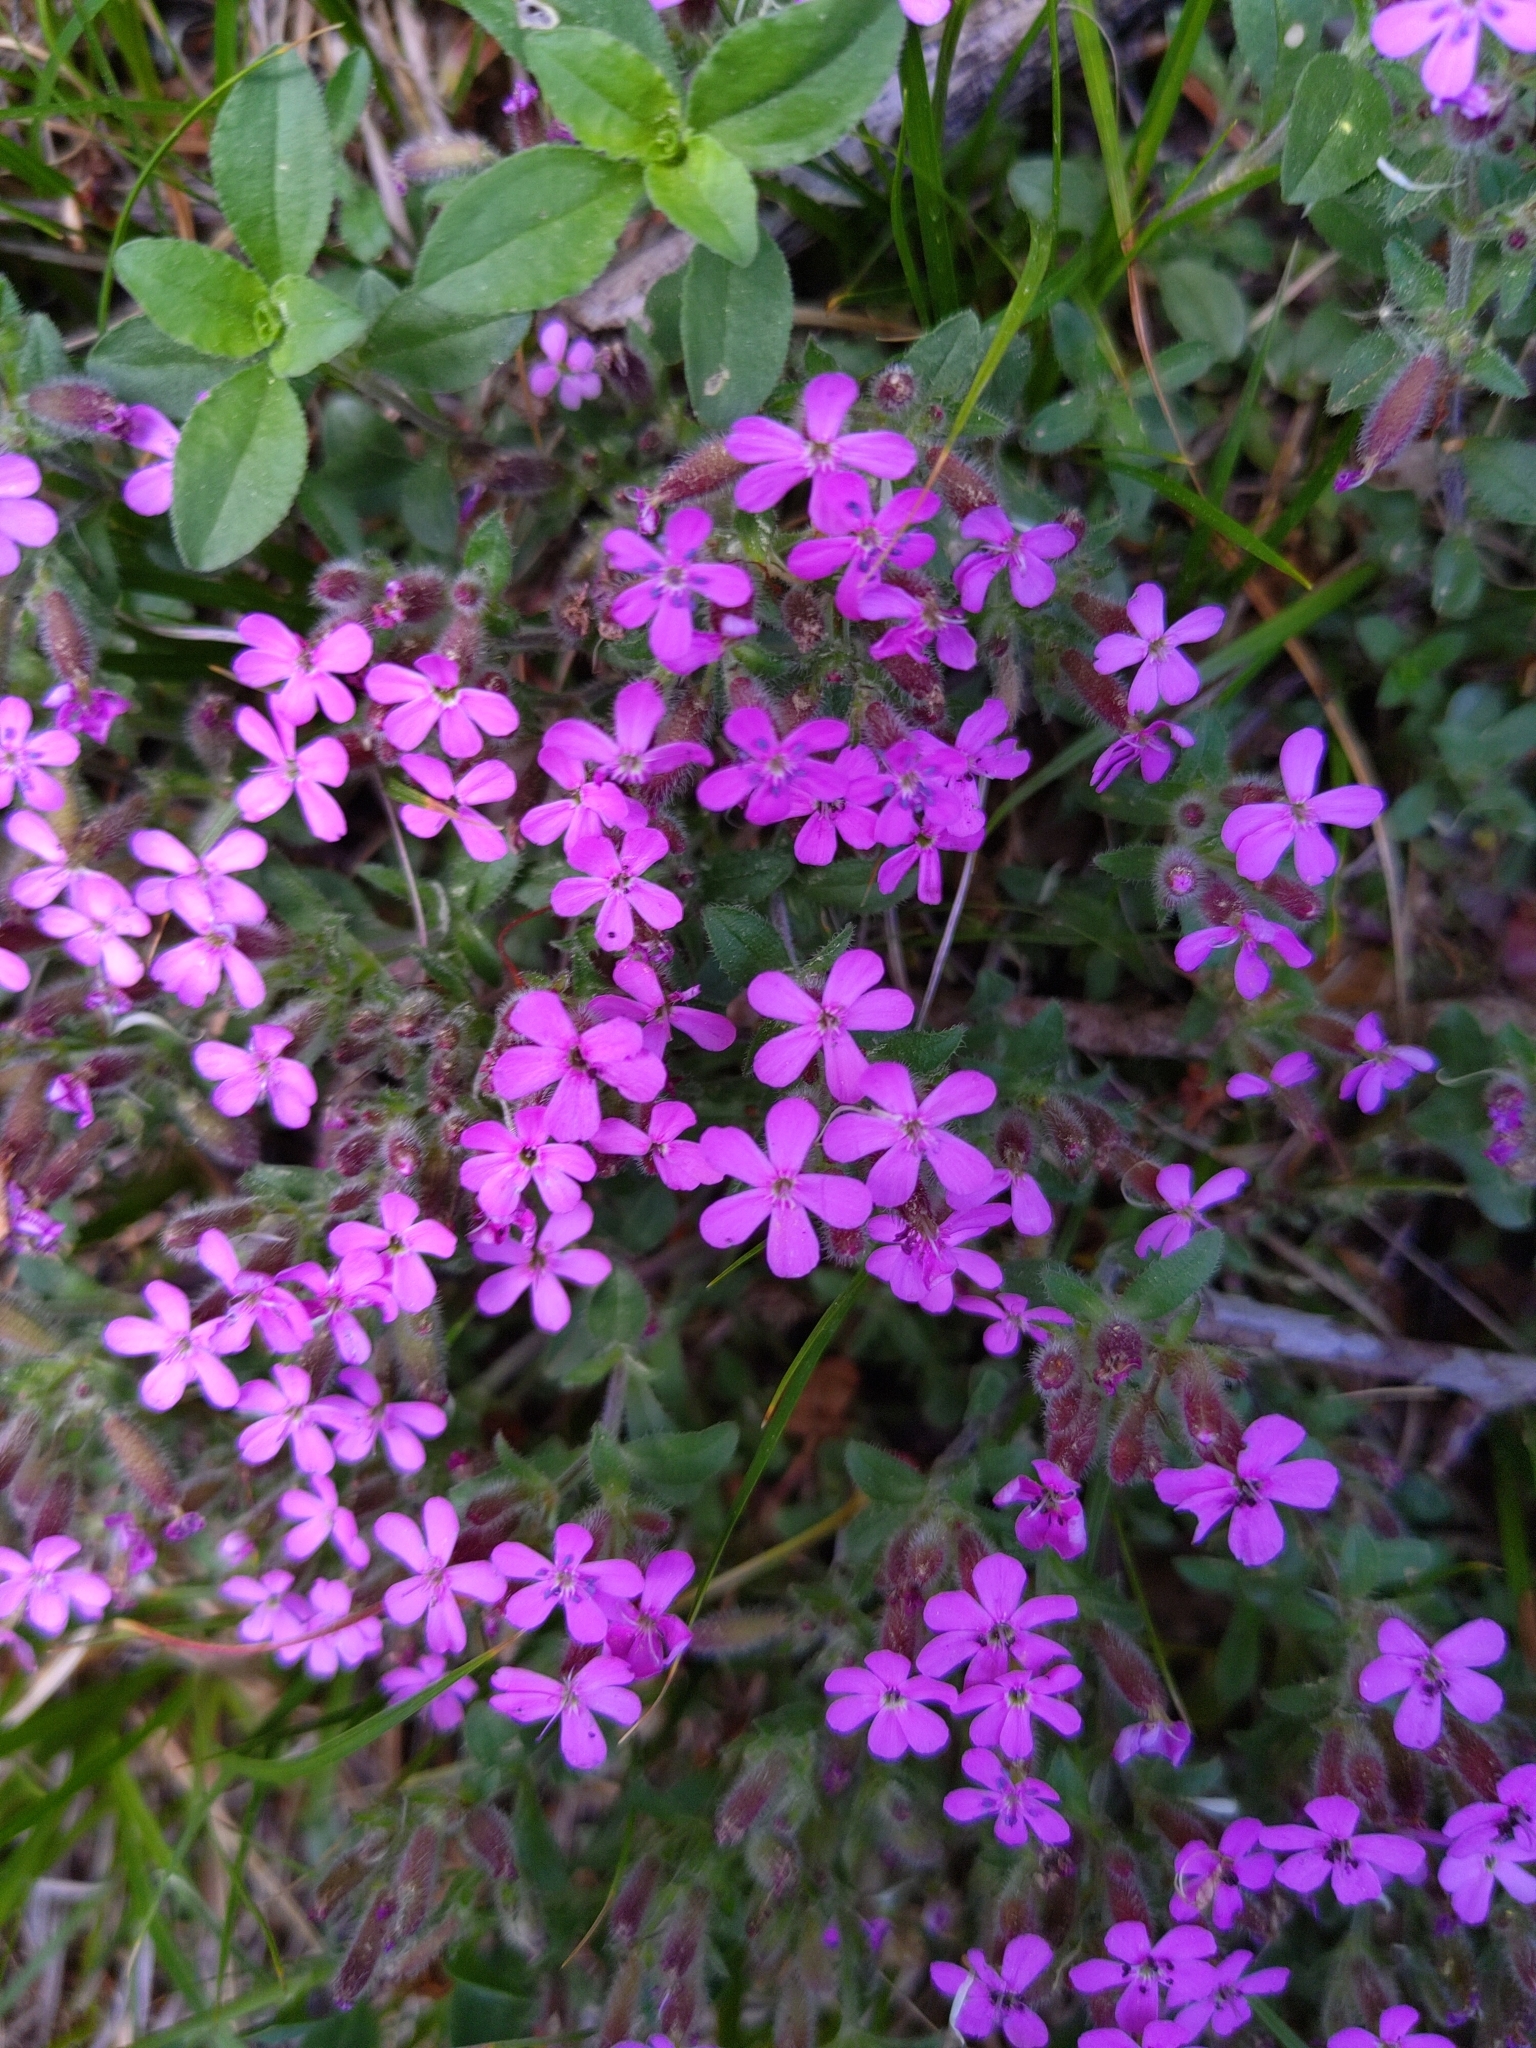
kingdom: Plantae
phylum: Tracheophyta
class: Magnoliopsida
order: Caryophyllales
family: Caryophyllaceae
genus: Saponaria
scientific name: Saponaria ocymoides
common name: Rock soapwort
